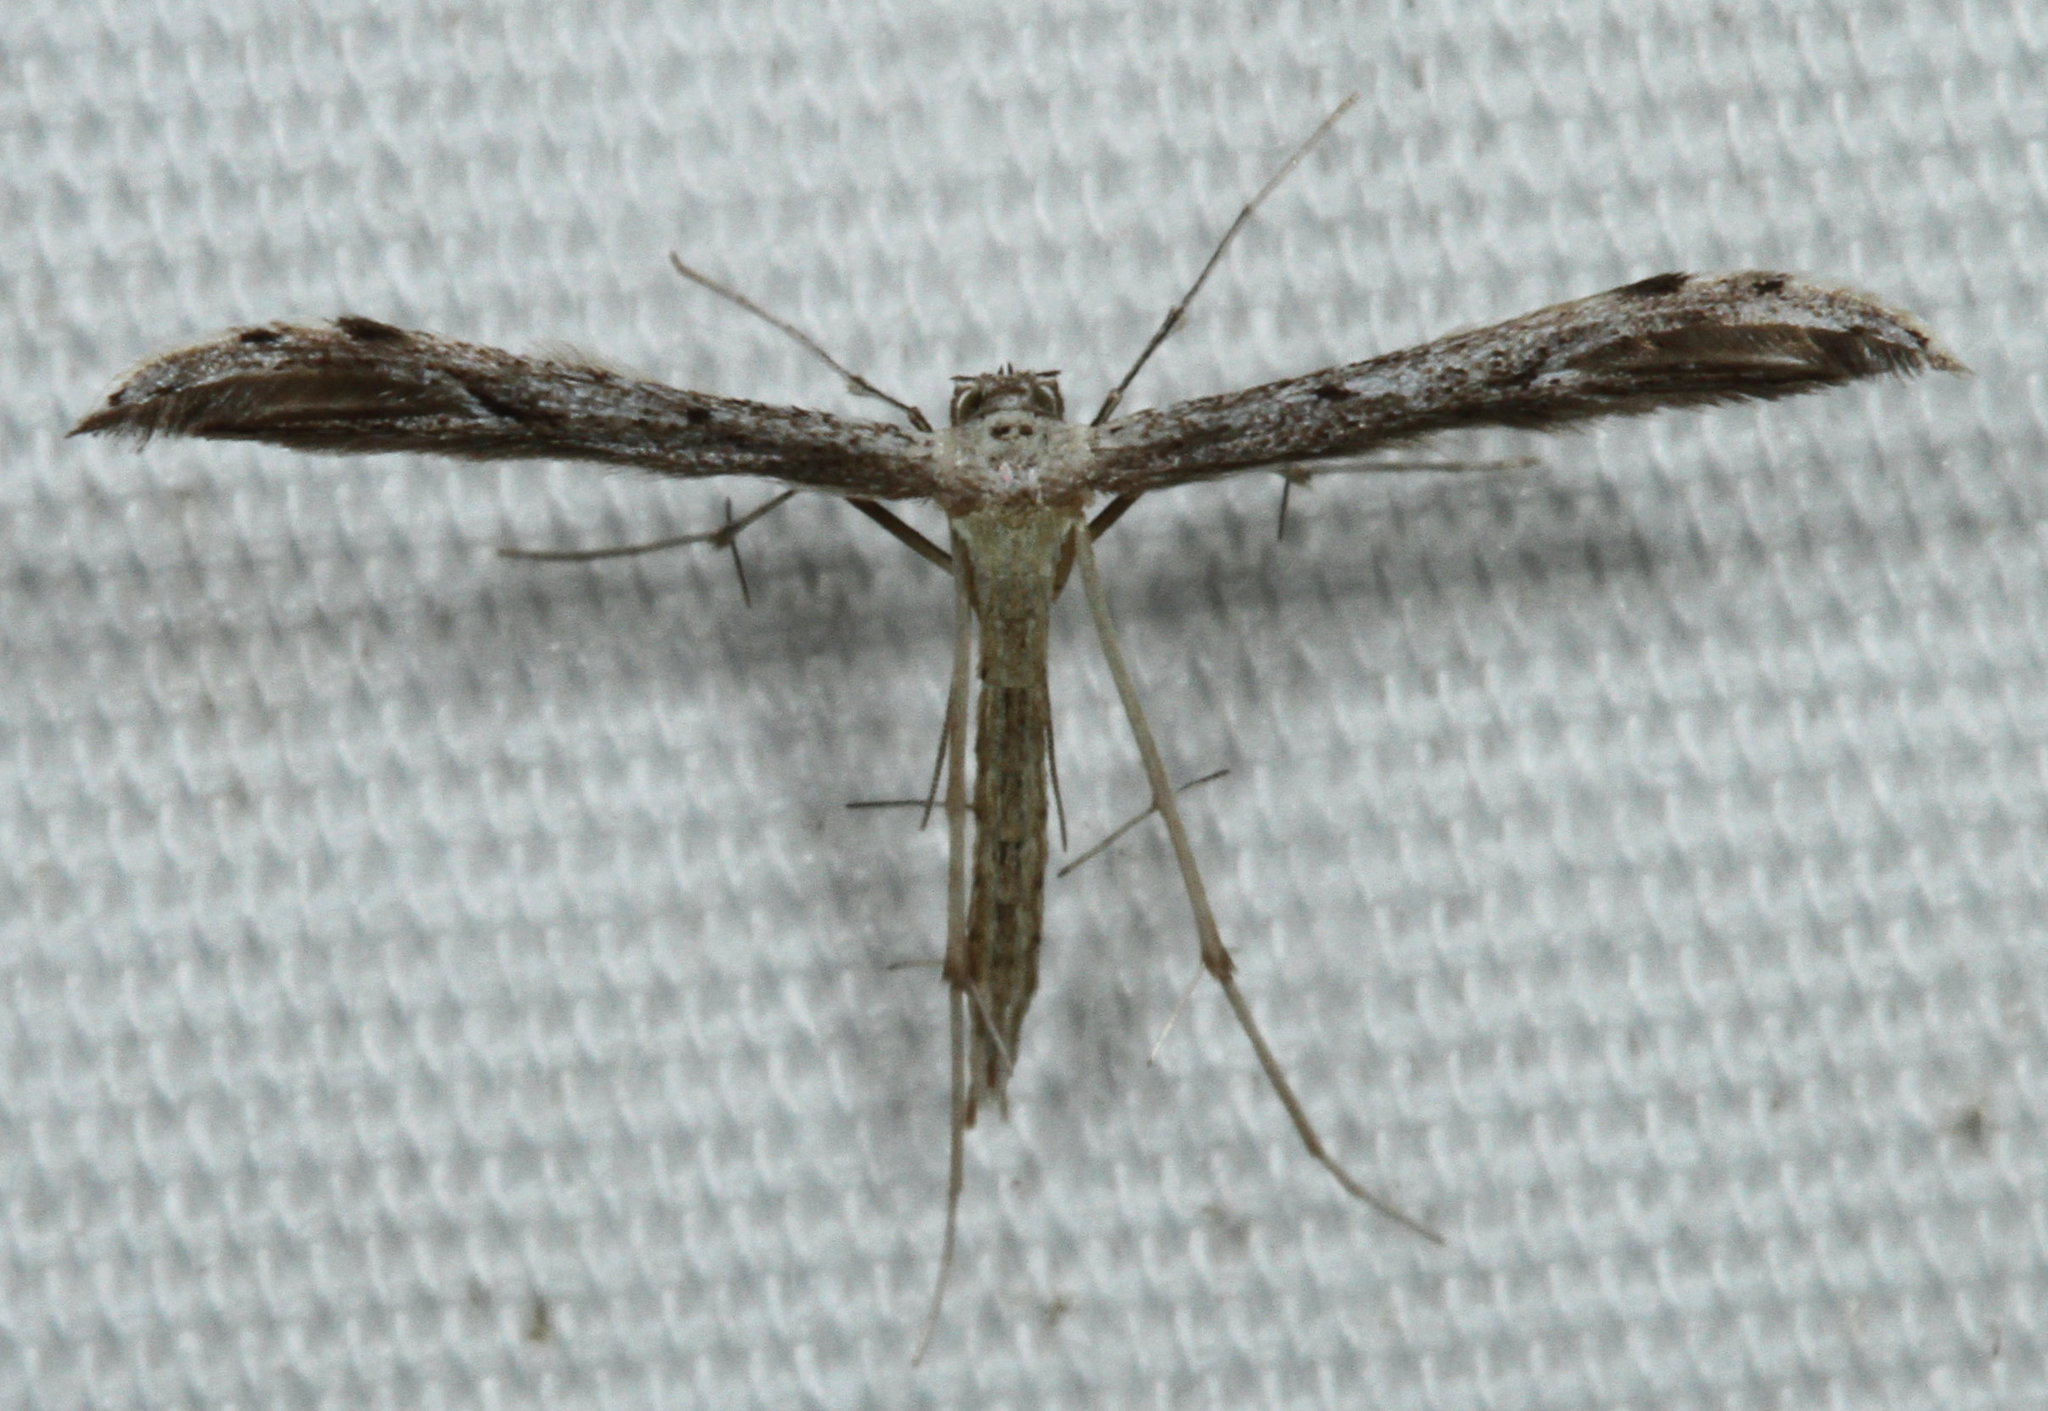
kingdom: Animalia
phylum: Arthropoda
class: Insecta
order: Lepidoptera
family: Pterophoridae
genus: Pselnophorus
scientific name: Pselnophorus belfragei
